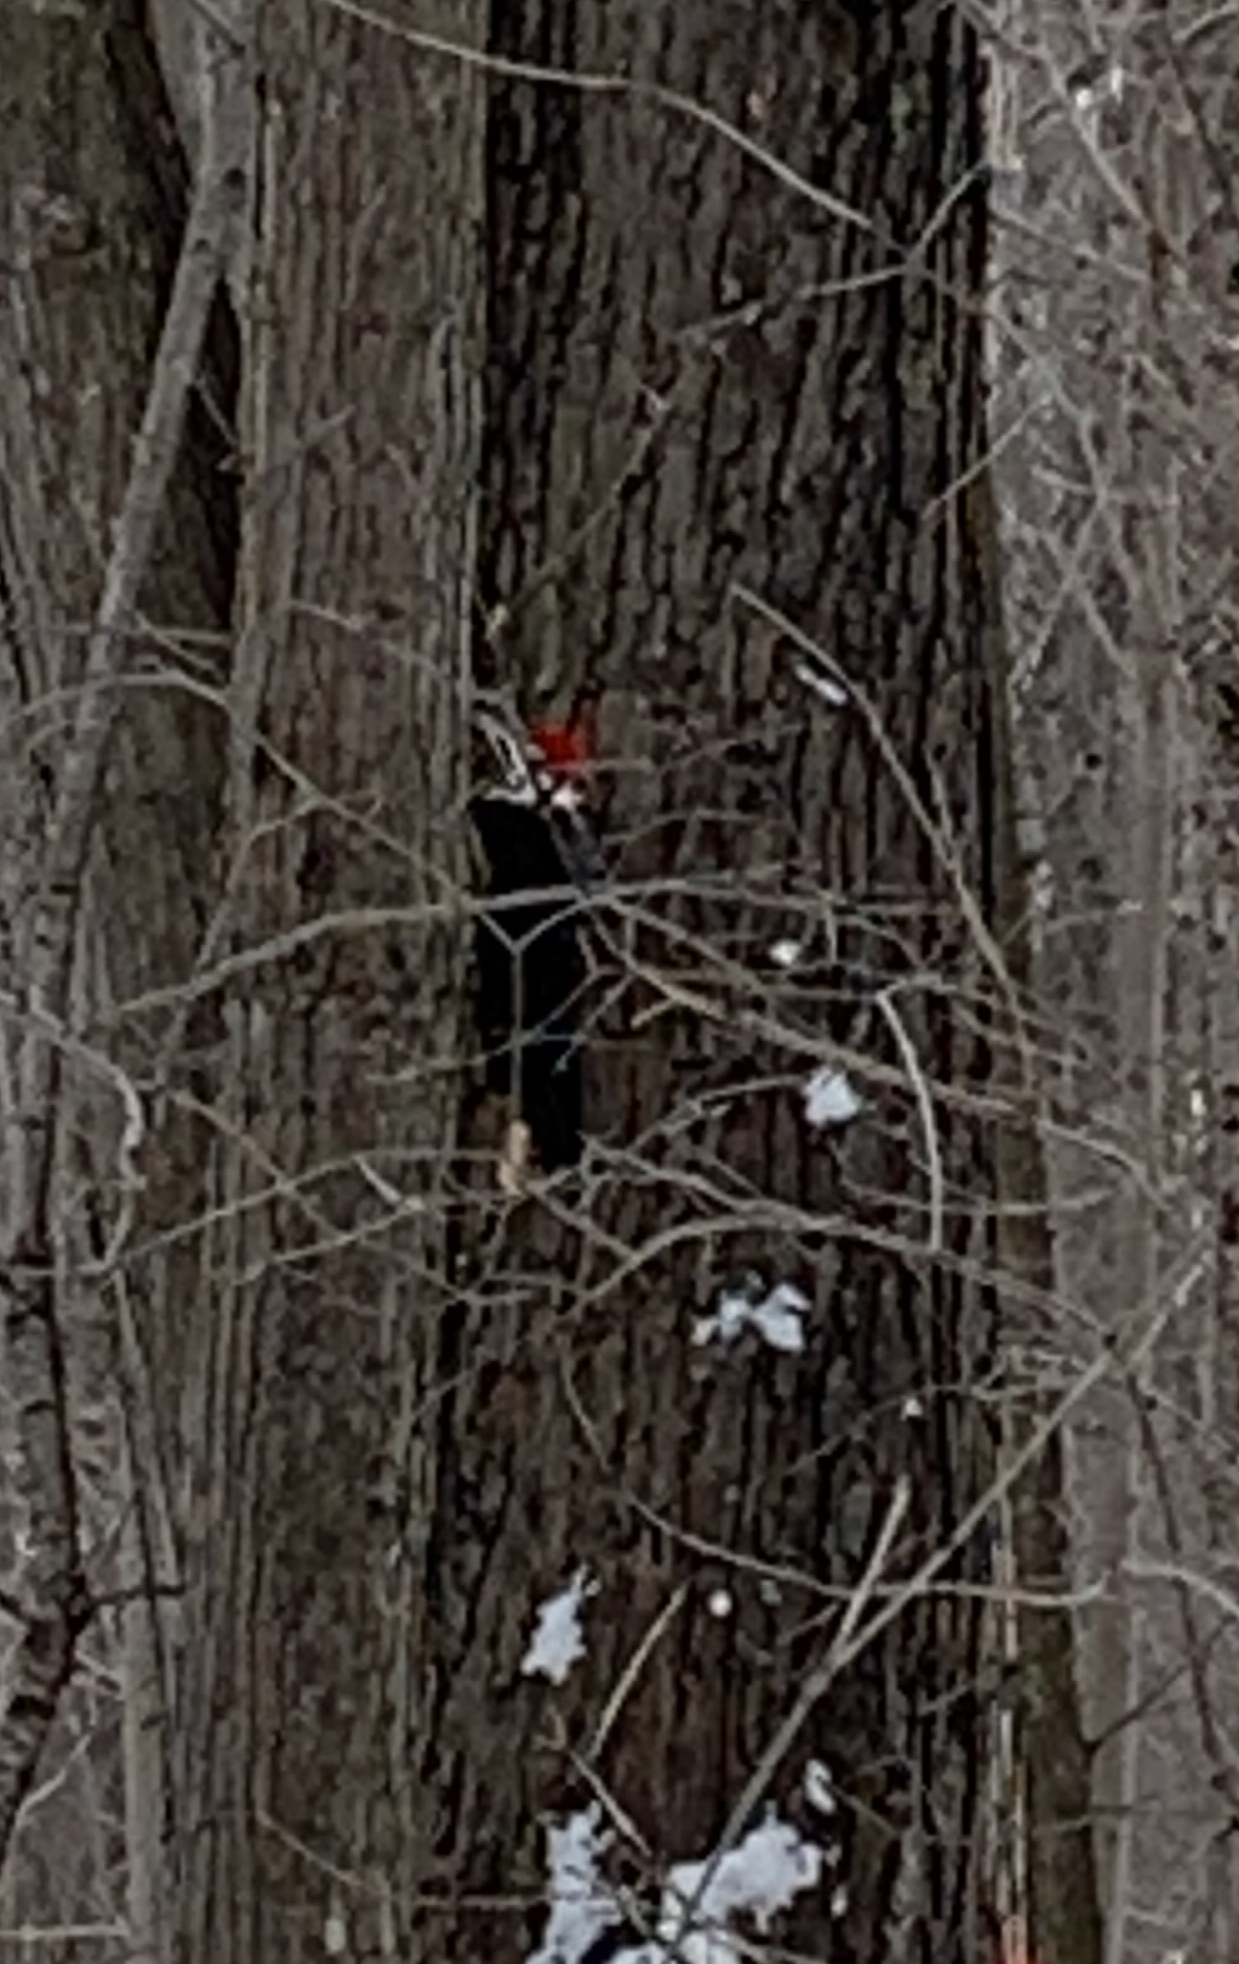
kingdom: Animalia
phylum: Chordata
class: Aves
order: Piciformes
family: Picidae
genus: Dryocopus
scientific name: Dryocopus pileatus
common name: Pileated woodpecker
